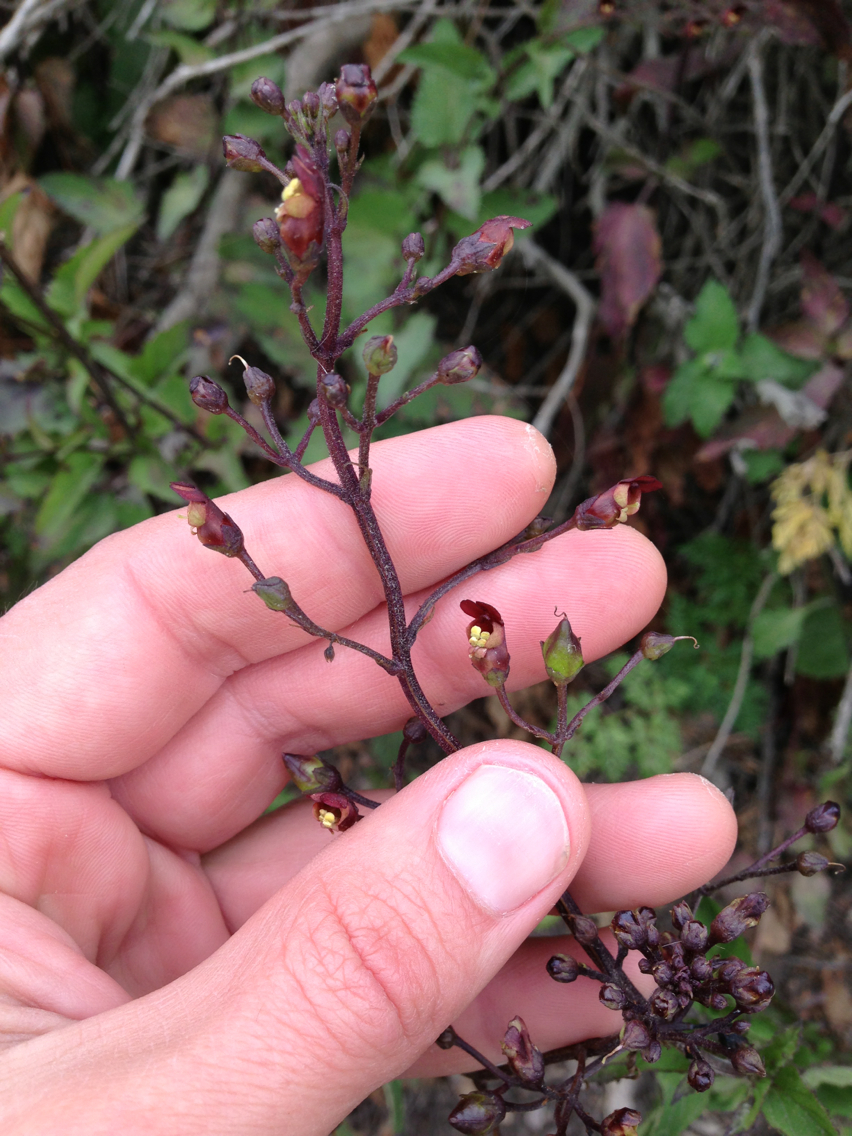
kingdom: Plantae
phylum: Tracheophyta
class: Magnoliopsida
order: Lamiales
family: Scrophulariaceae
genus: Scrophularia
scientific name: Scrophularia californica
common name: California figwort
